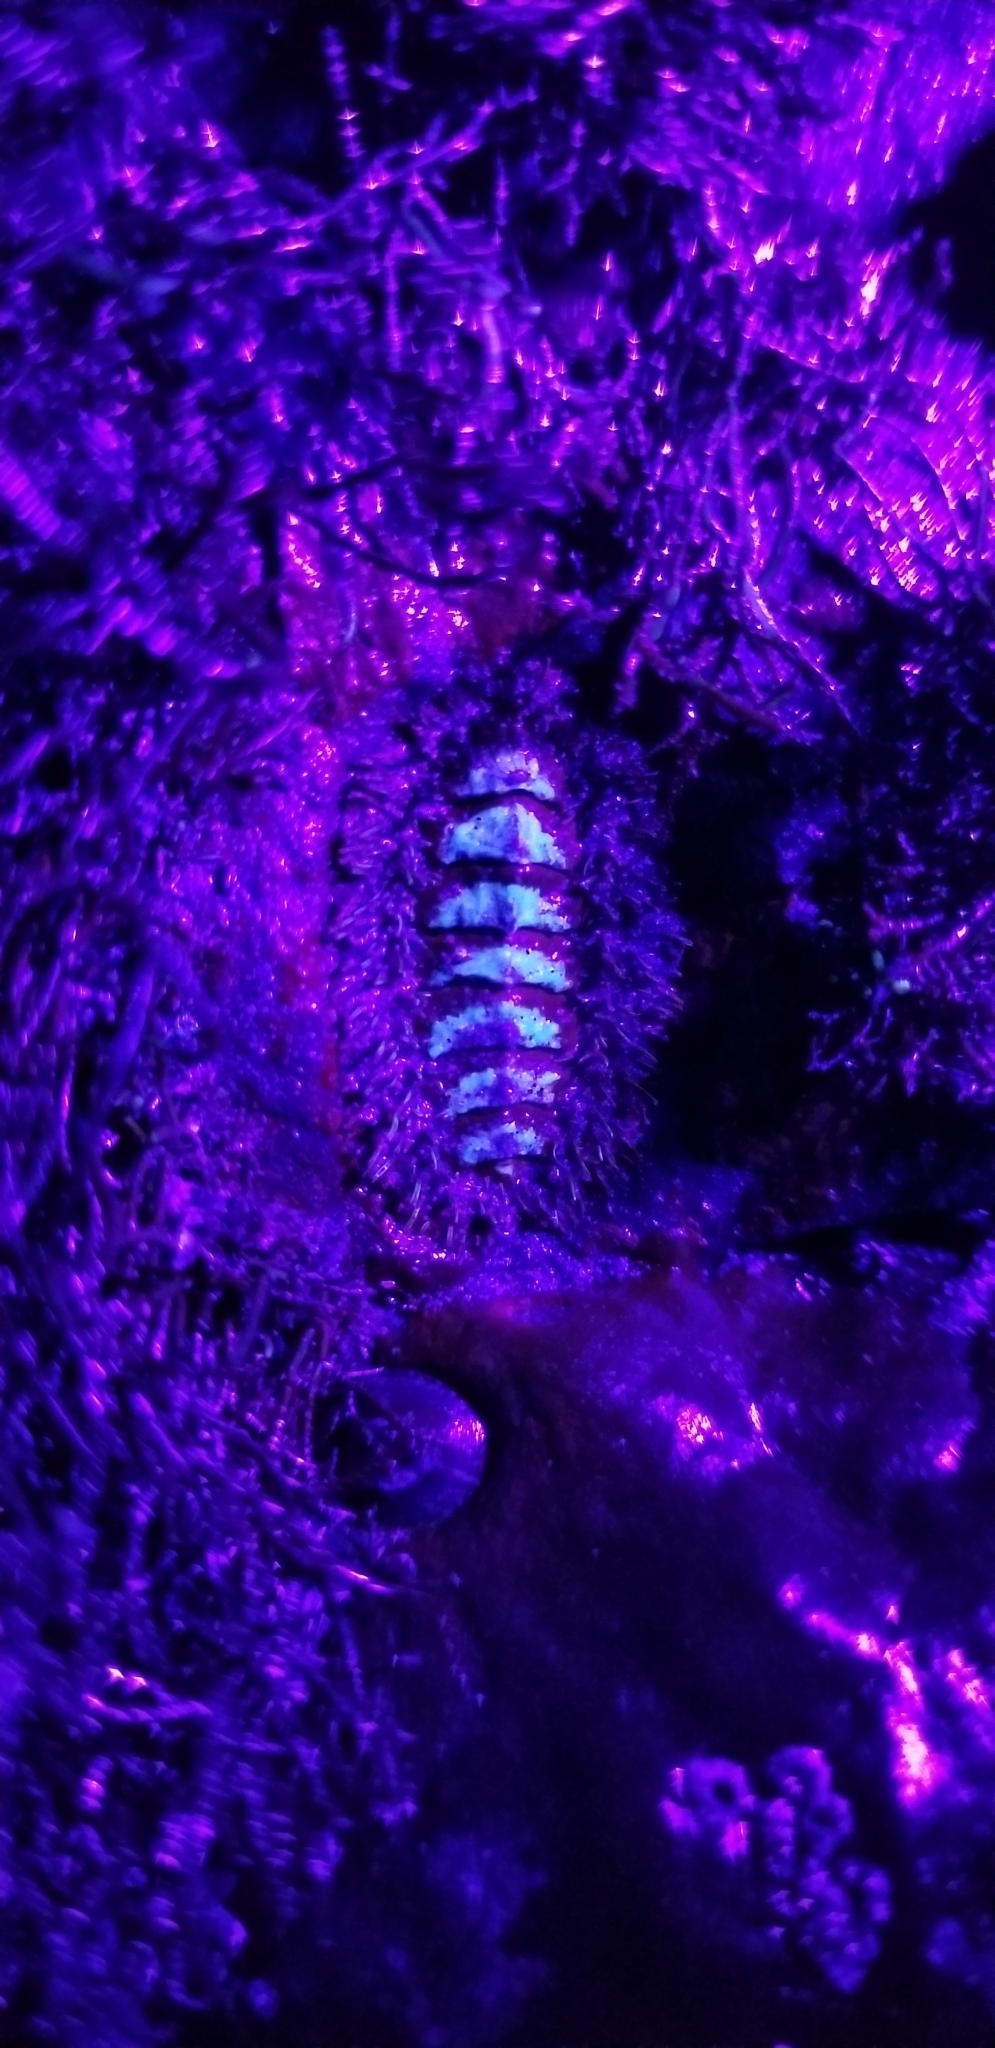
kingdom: Animalia
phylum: Mollusca
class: Polyplacophora
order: Chitonida
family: Mopaliidae
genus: Mopalia
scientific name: Mopalia muscosa
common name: Mossy chiton
